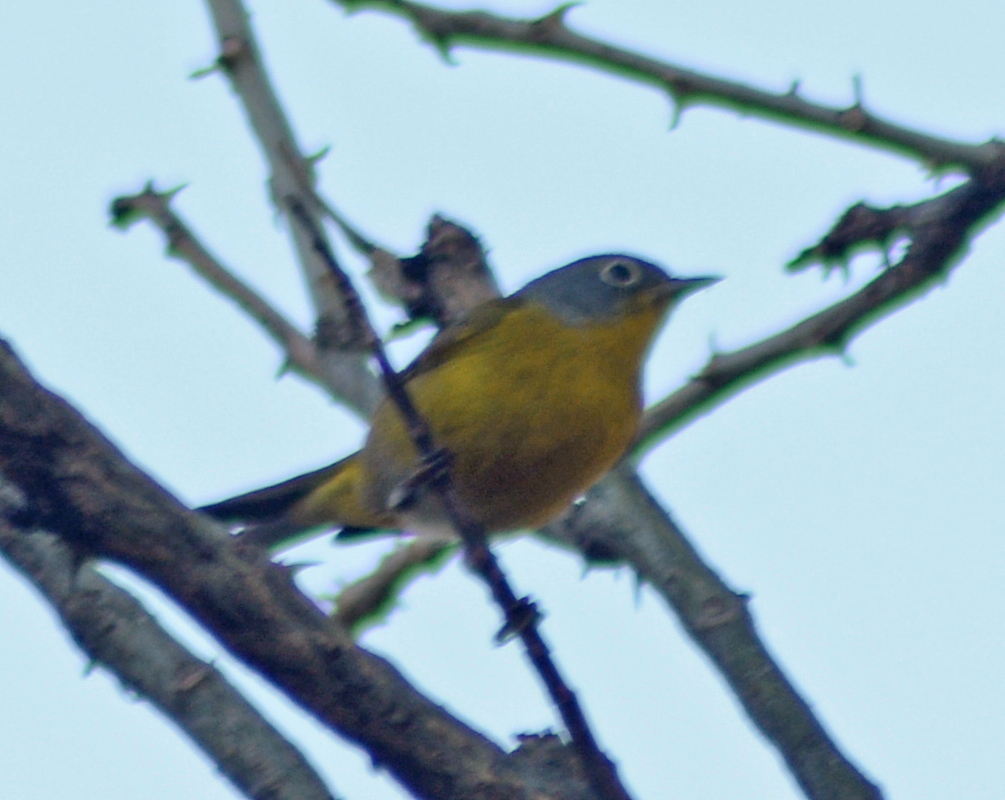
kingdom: Animalia
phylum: Chordata
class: Aves
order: Passeriformes
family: Parulidae
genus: Leiothlypis
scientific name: Leiothlypis ruficapilla
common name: Nashville warbler
